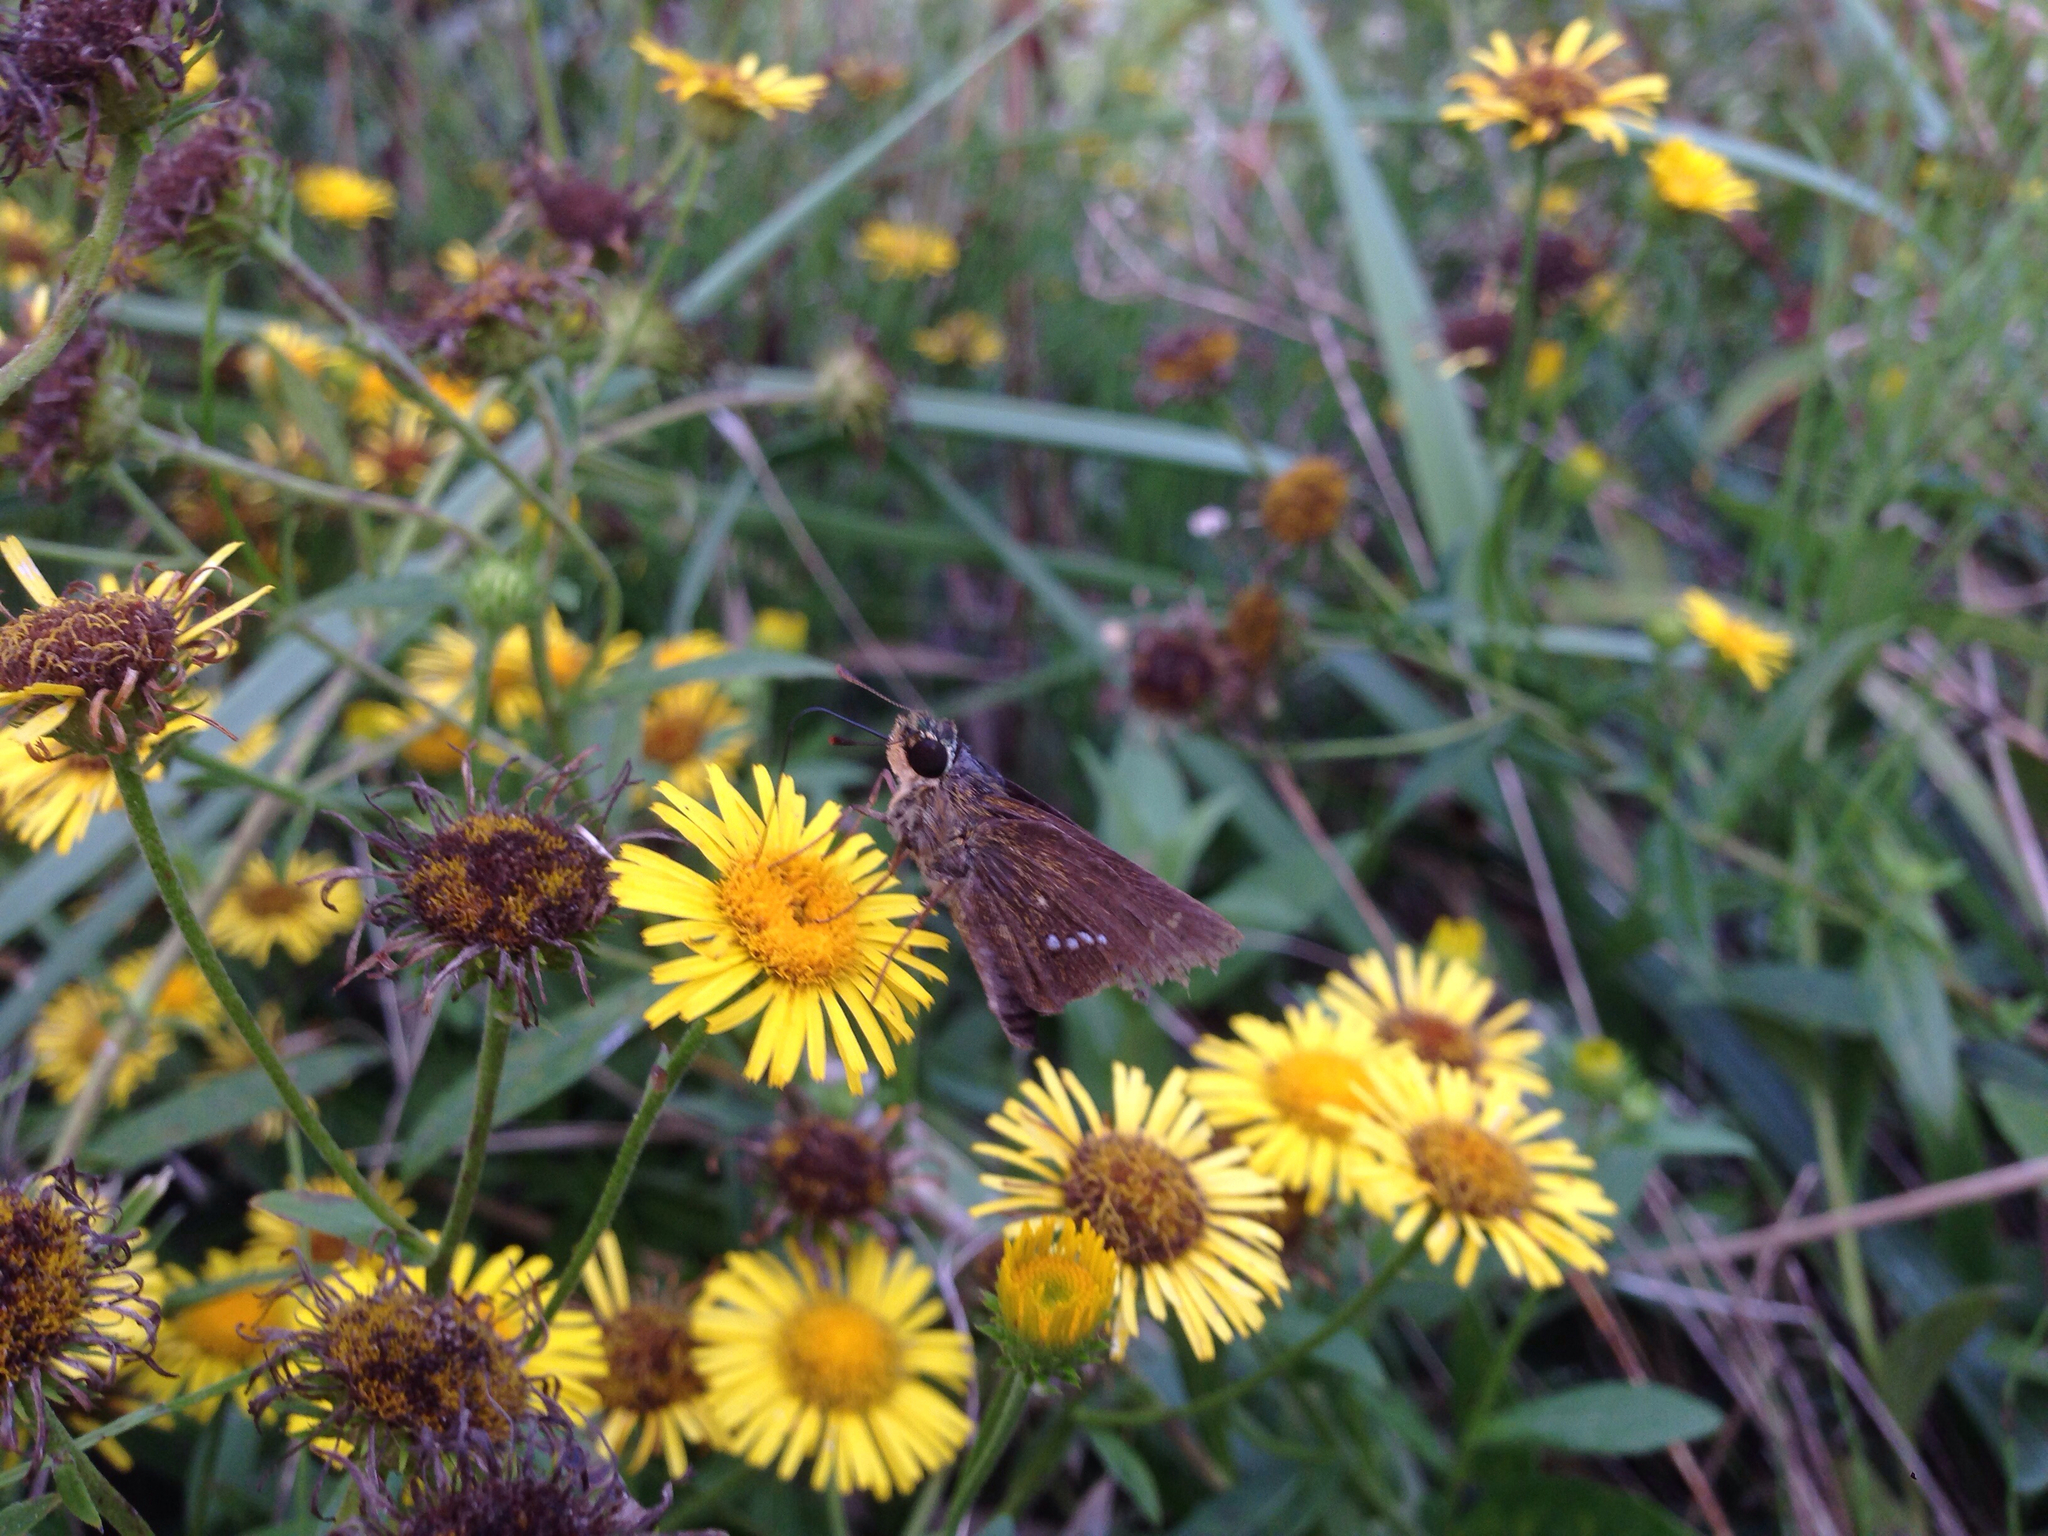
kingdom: Animalia
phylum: Arthropoda
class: Insecta
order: Lepidoptera
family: Hesperiidae
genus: Parnara
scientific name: Parnara guttatus
